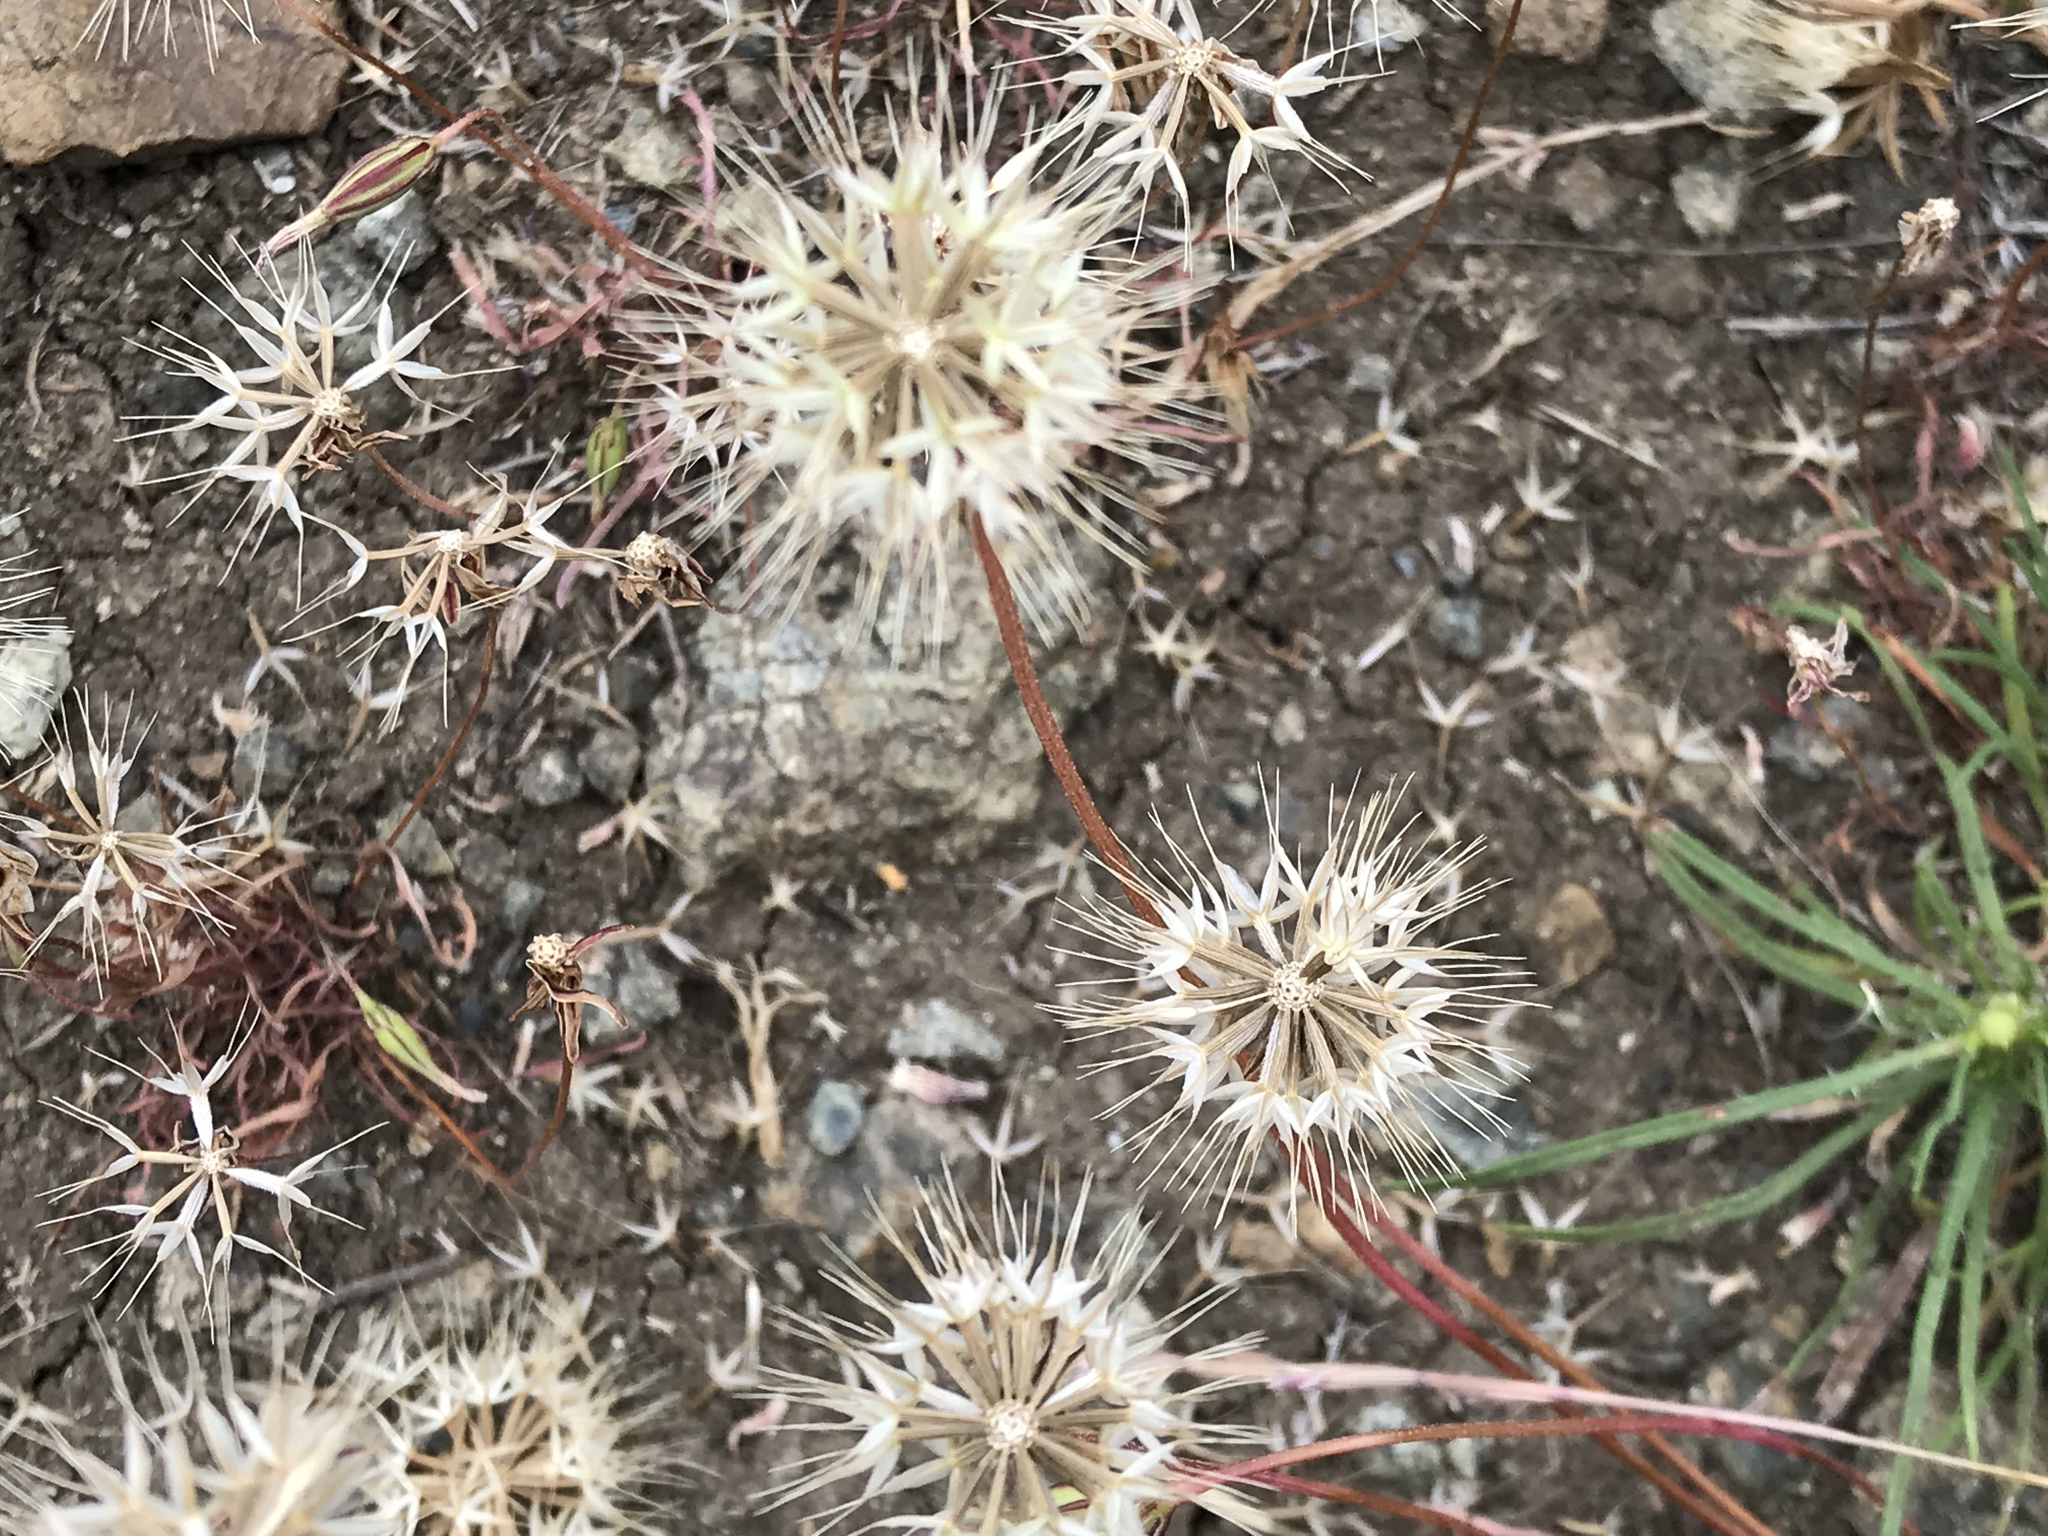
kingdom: Plantae
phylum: Tracheophyta
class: Magnoliopsida
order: Asterales
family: Asteraceae
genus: Microseris
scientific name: Microseris lindleyi
